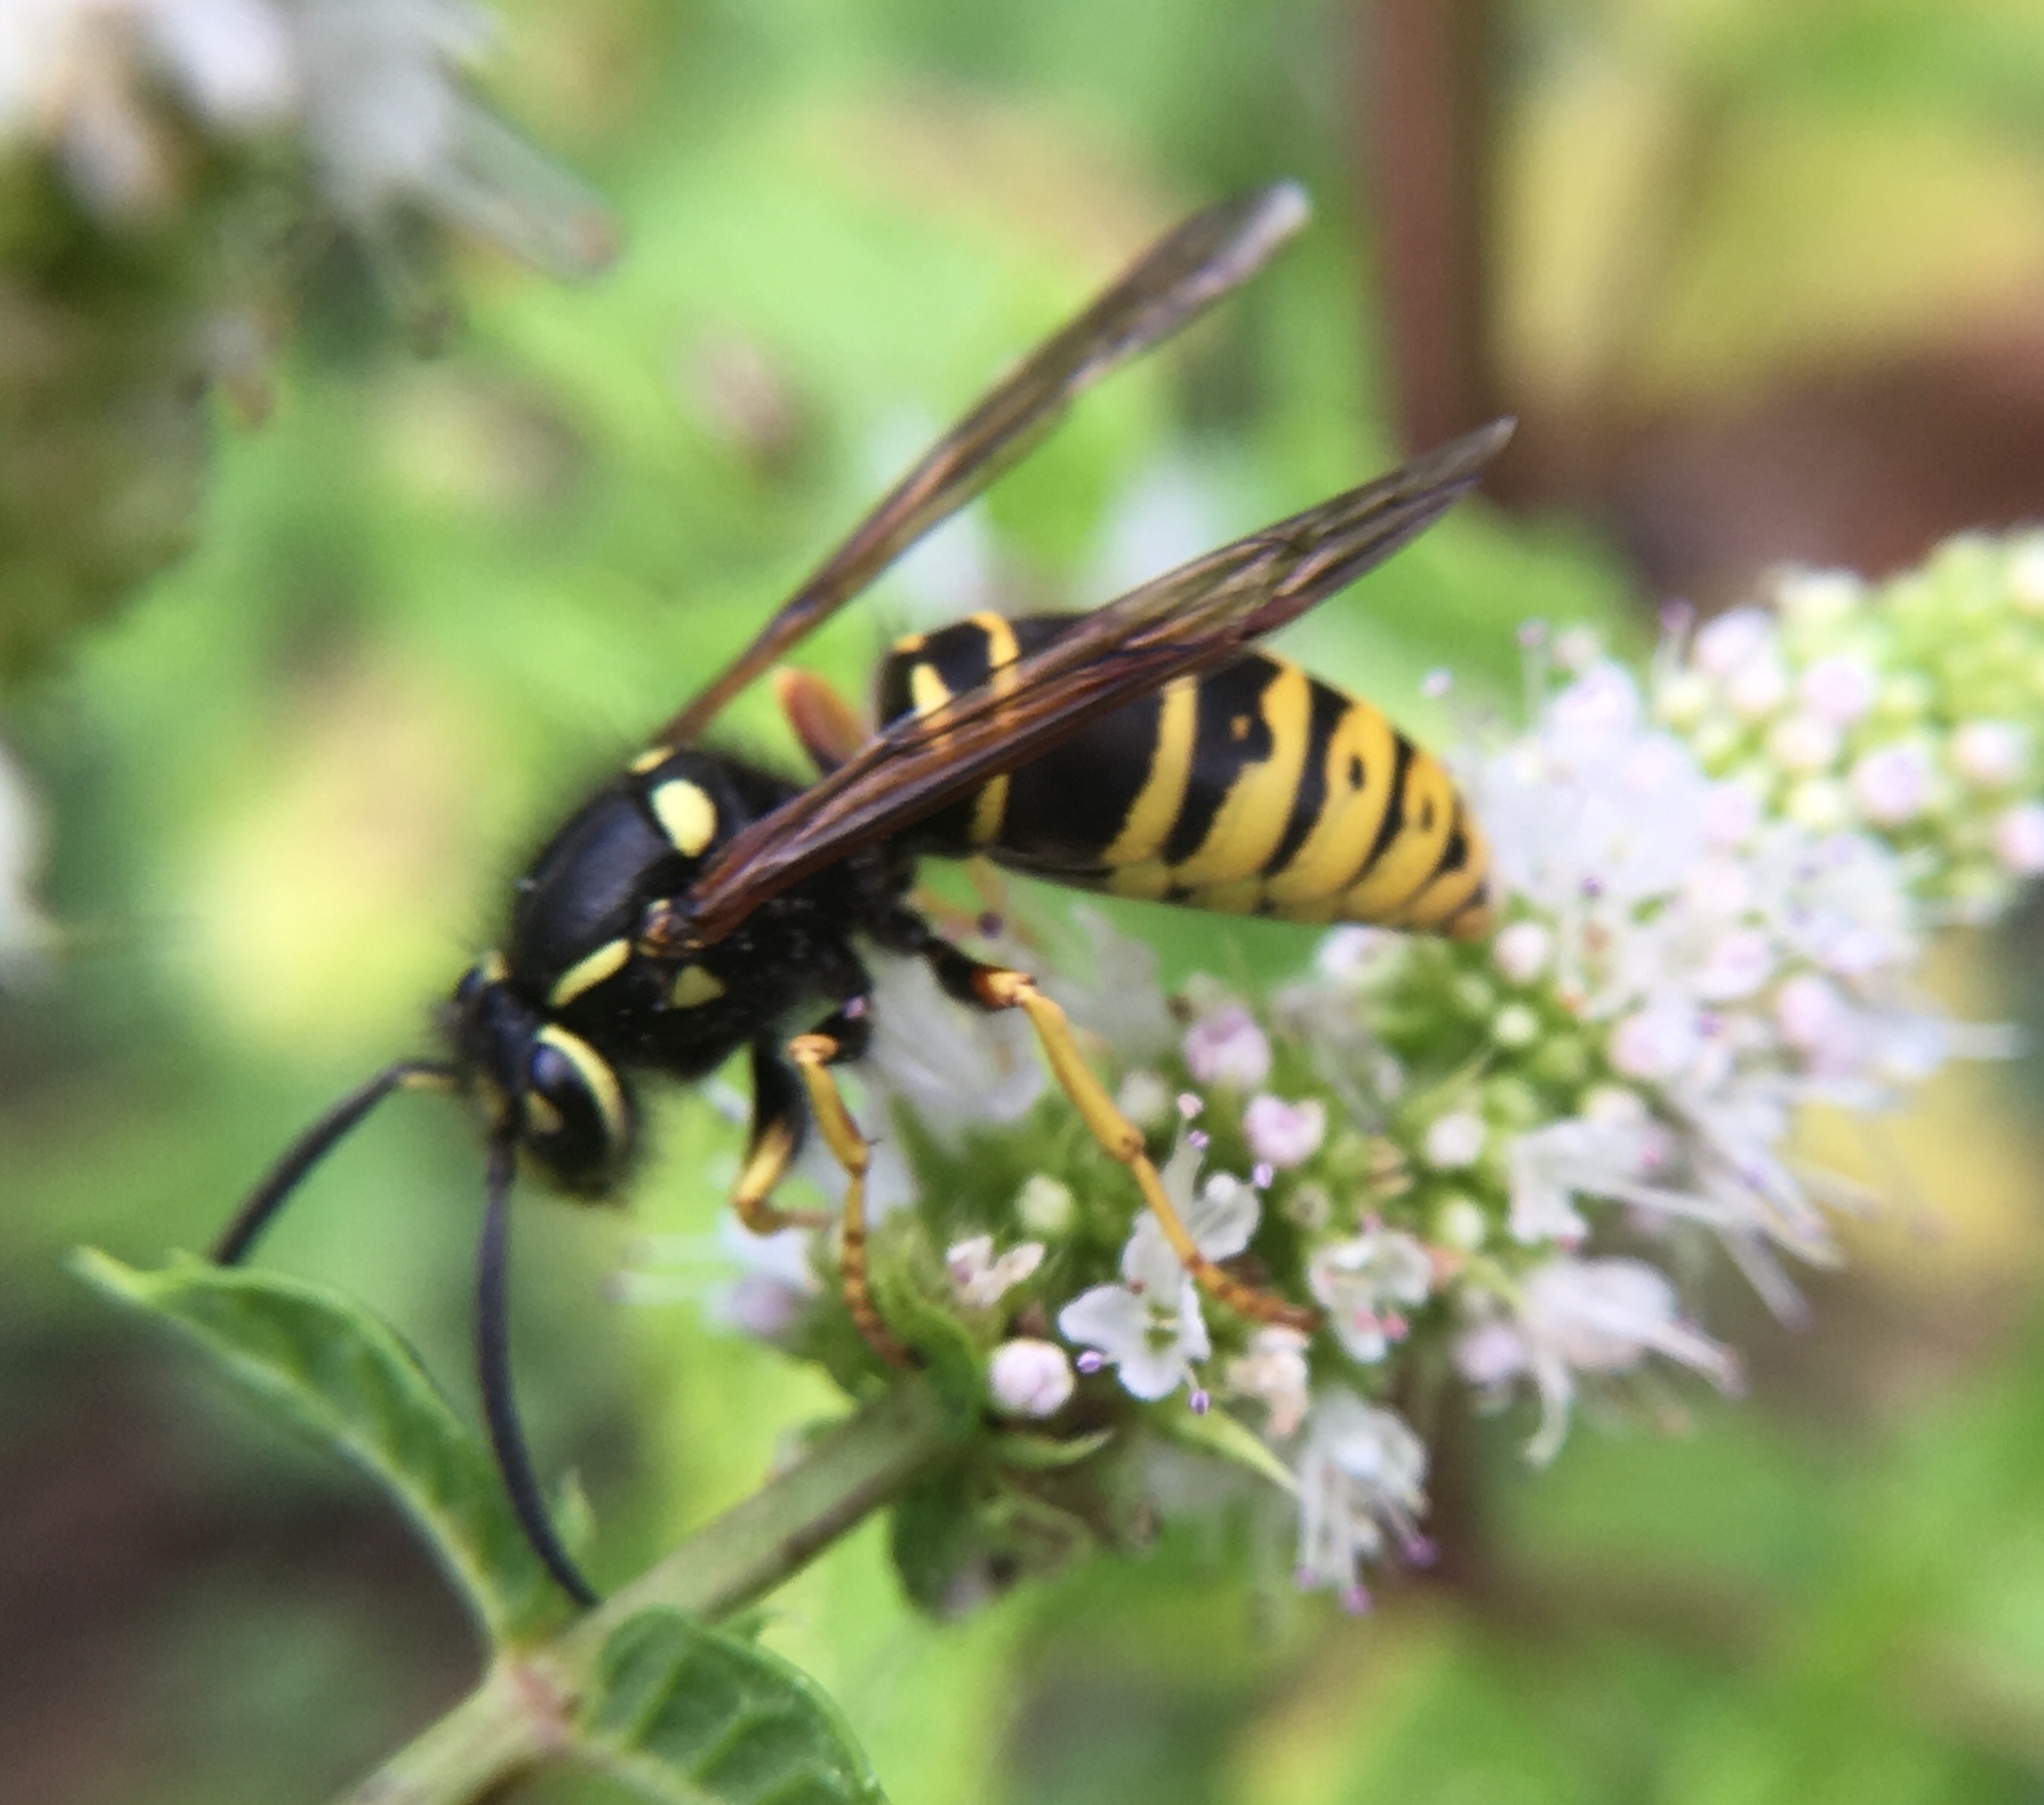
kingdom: Animalia
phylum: Arthropoda
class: Insecta
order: Hymenoptera
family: Vespidae
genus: Vespula
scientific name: Vespula vidua
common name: Widow yellowjacket
